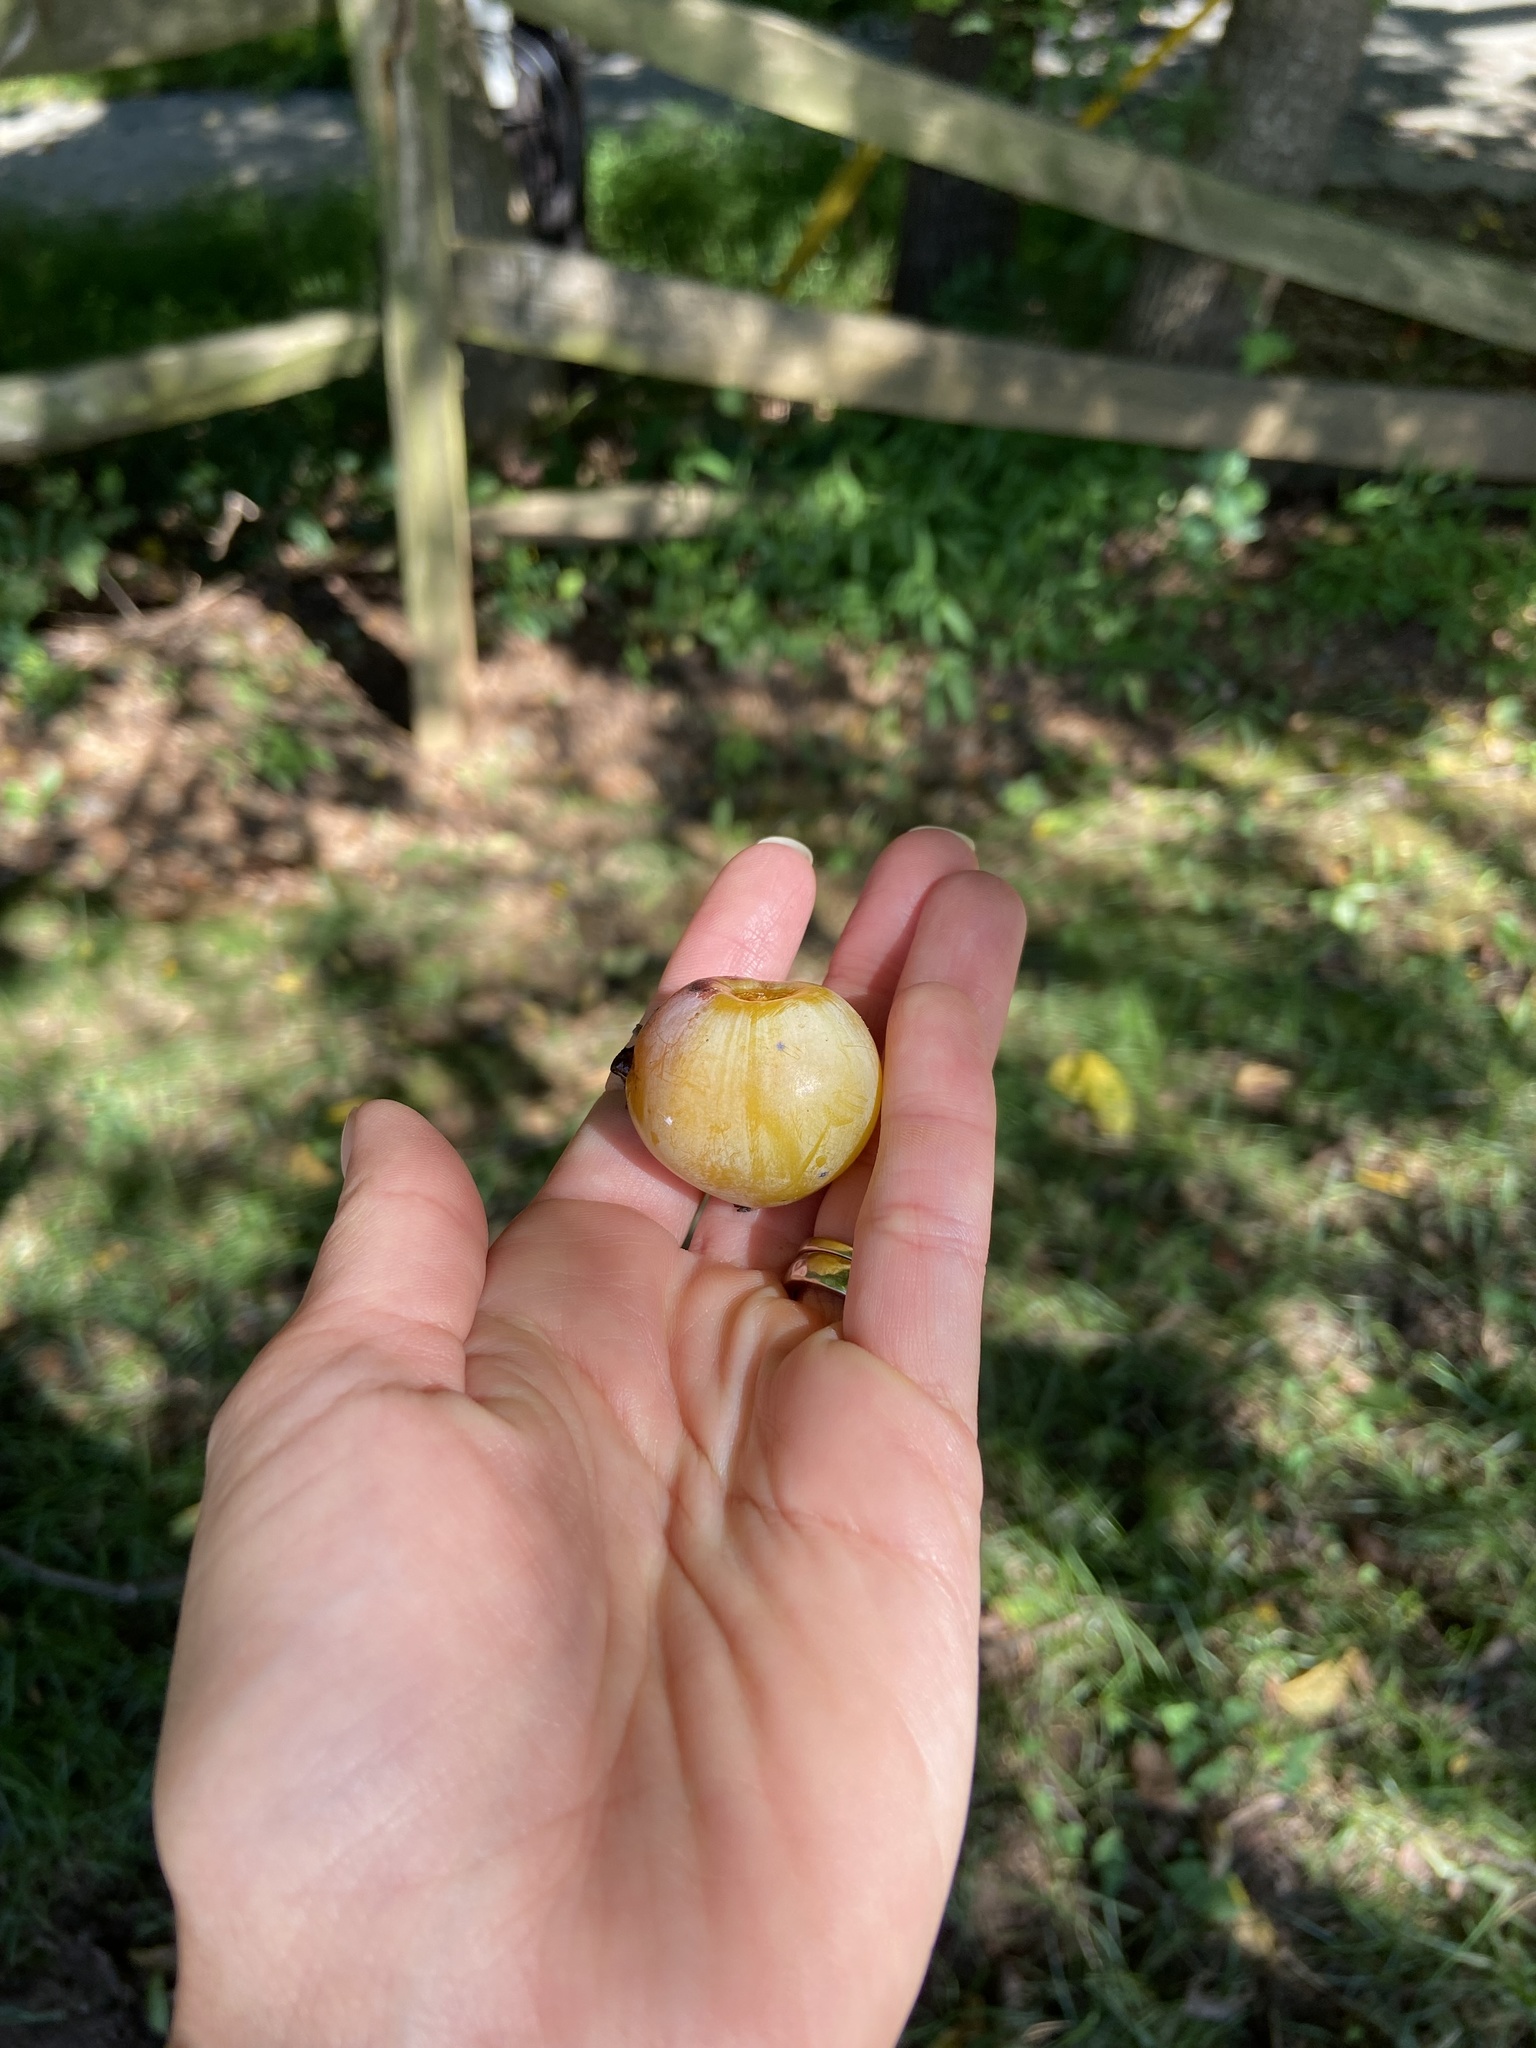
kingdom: Plantae
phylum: Tracheophyta
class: Magnoliopsida
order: Ericales
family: Ebenaceae
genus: Diospyros
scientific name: Diospyros virginiana
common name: Persimmon
